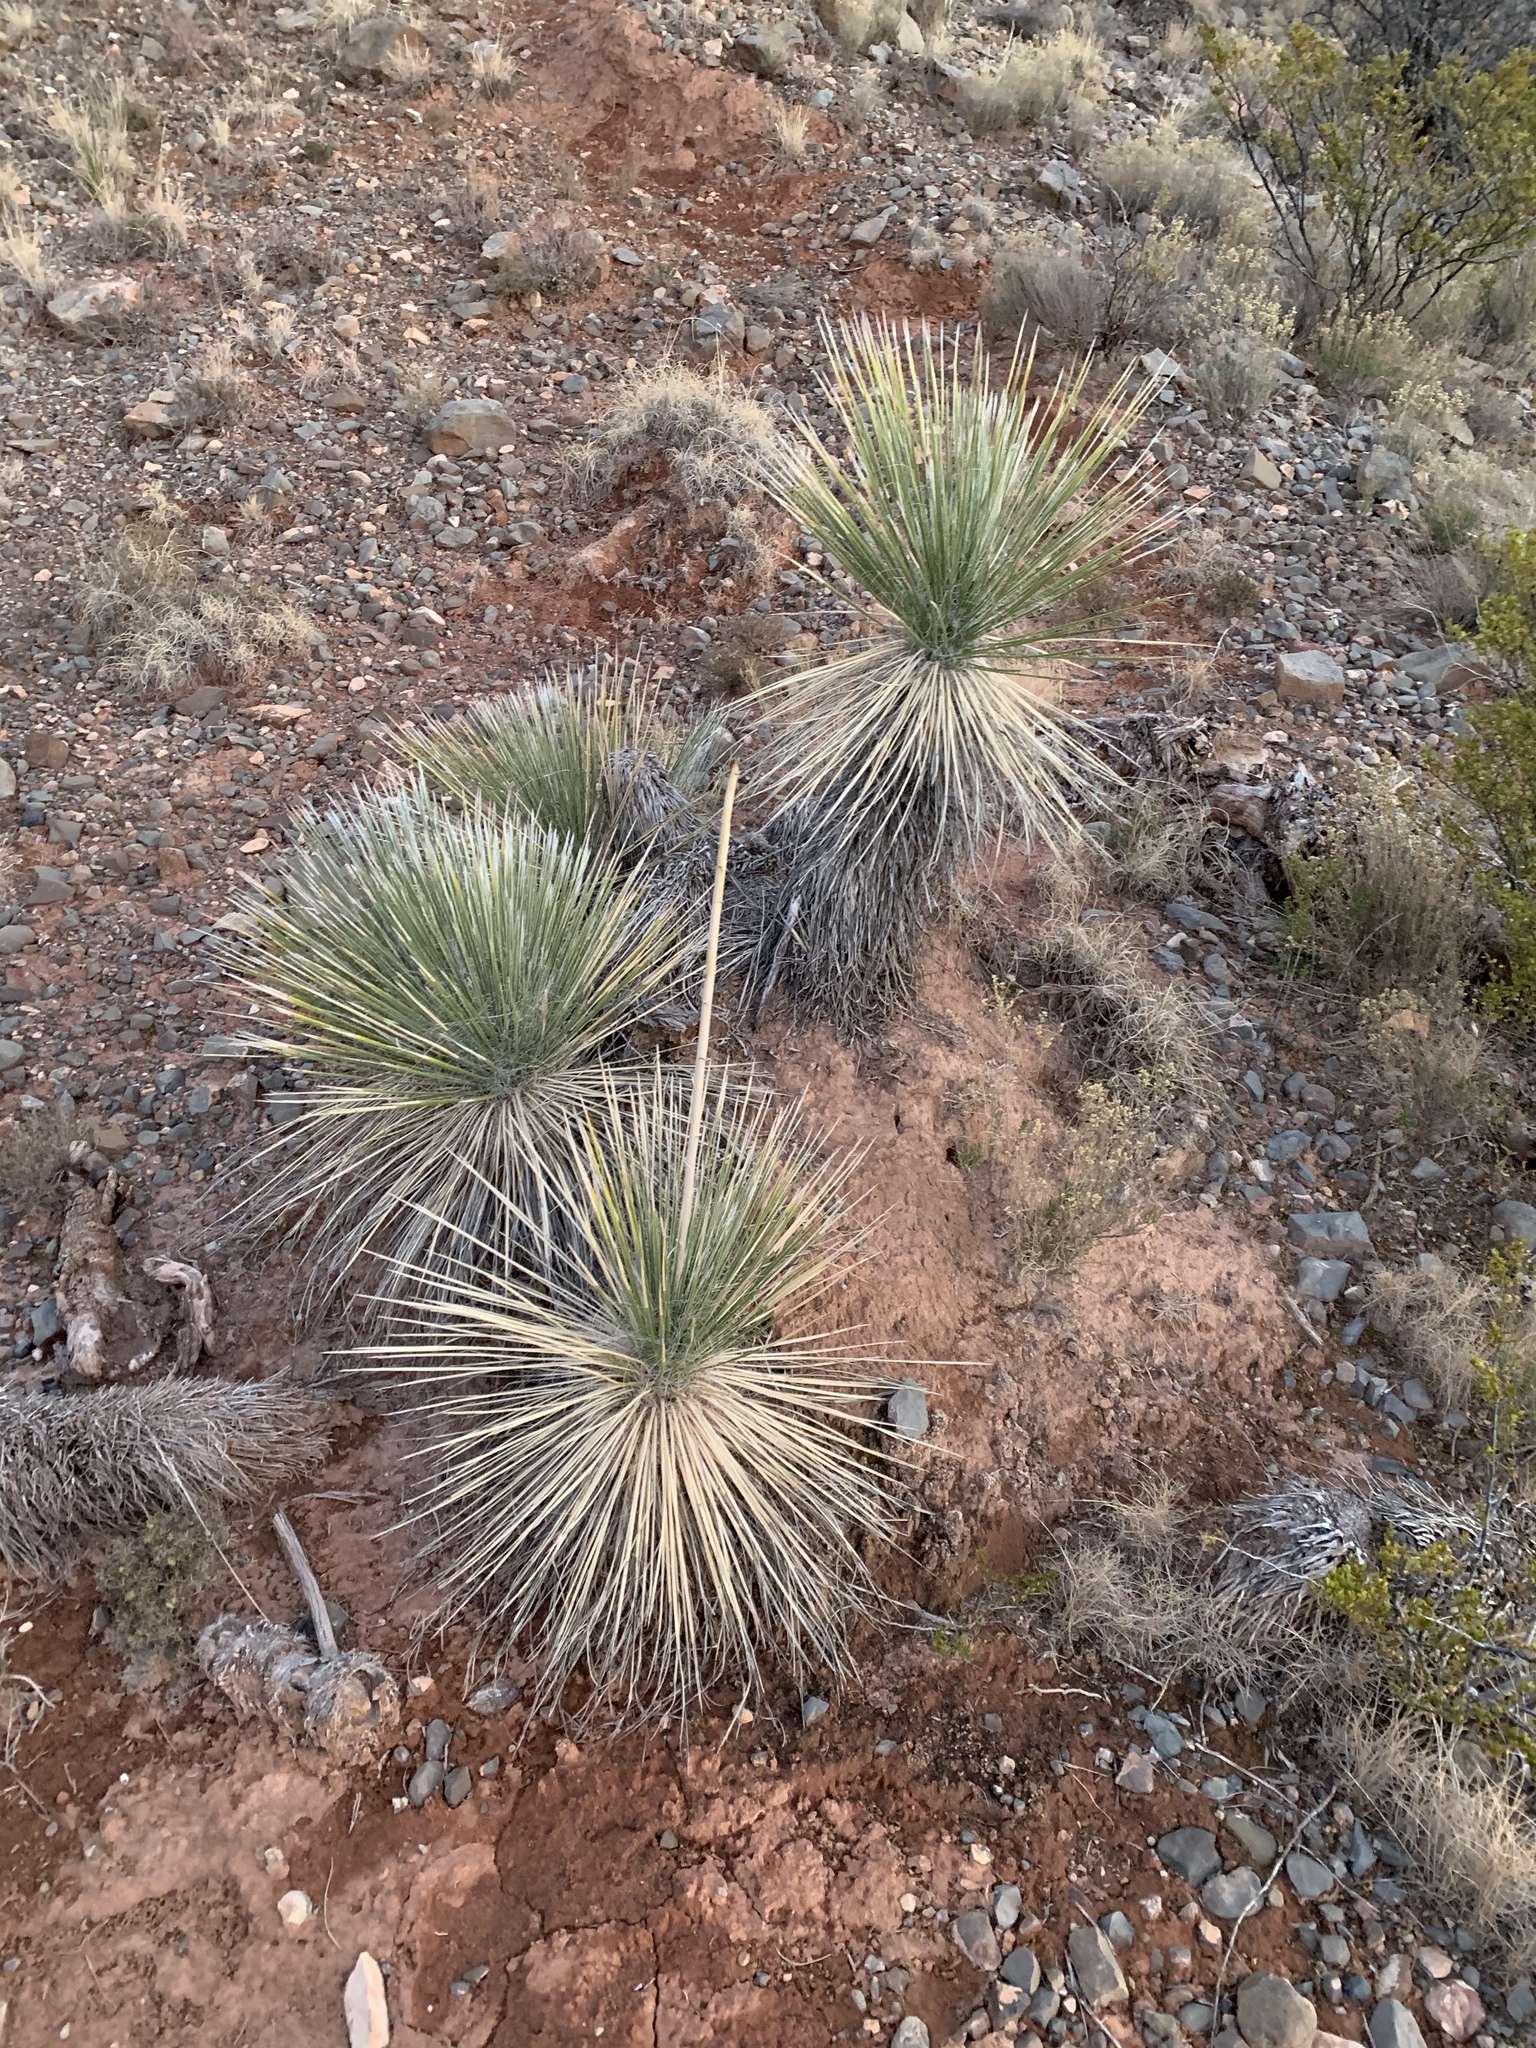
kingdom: Plantae
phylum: Tracheophyta
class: Liliopsida
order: Asparagales
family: Asparagaceae
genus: Yucca
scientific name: Yucca elata
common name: Palmella
